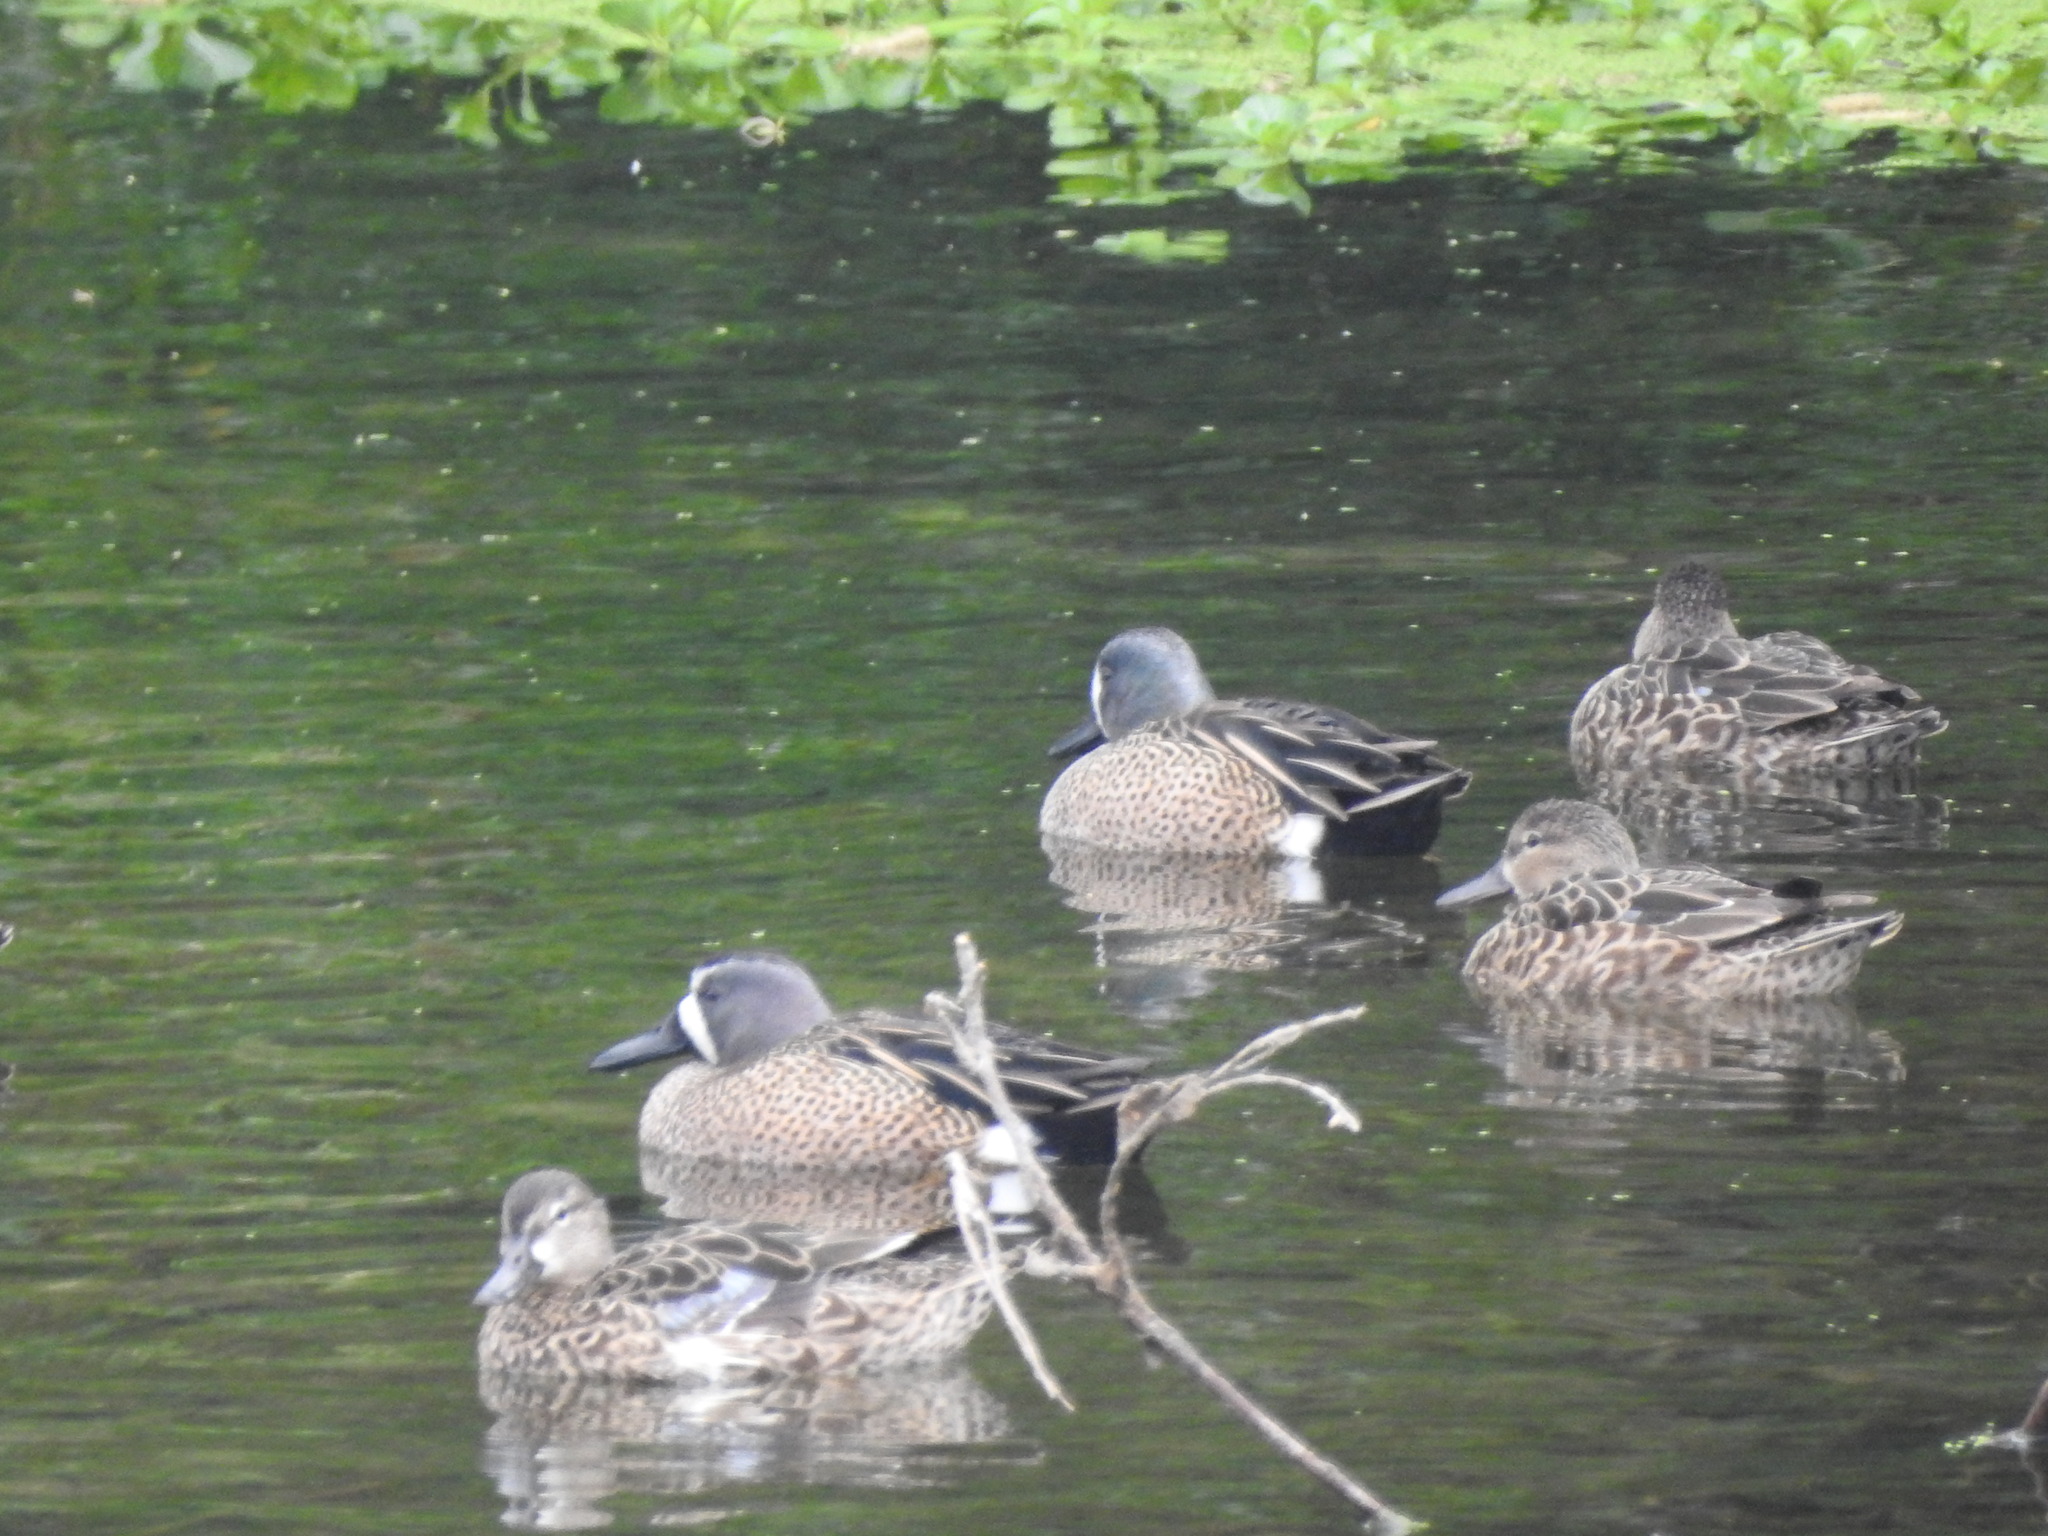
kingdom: Animalia
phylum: Chordata
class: Aves
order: Anseriformes
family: Anatidae
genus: Spatula
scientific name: Spatula discors
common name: Blue-winged teal
